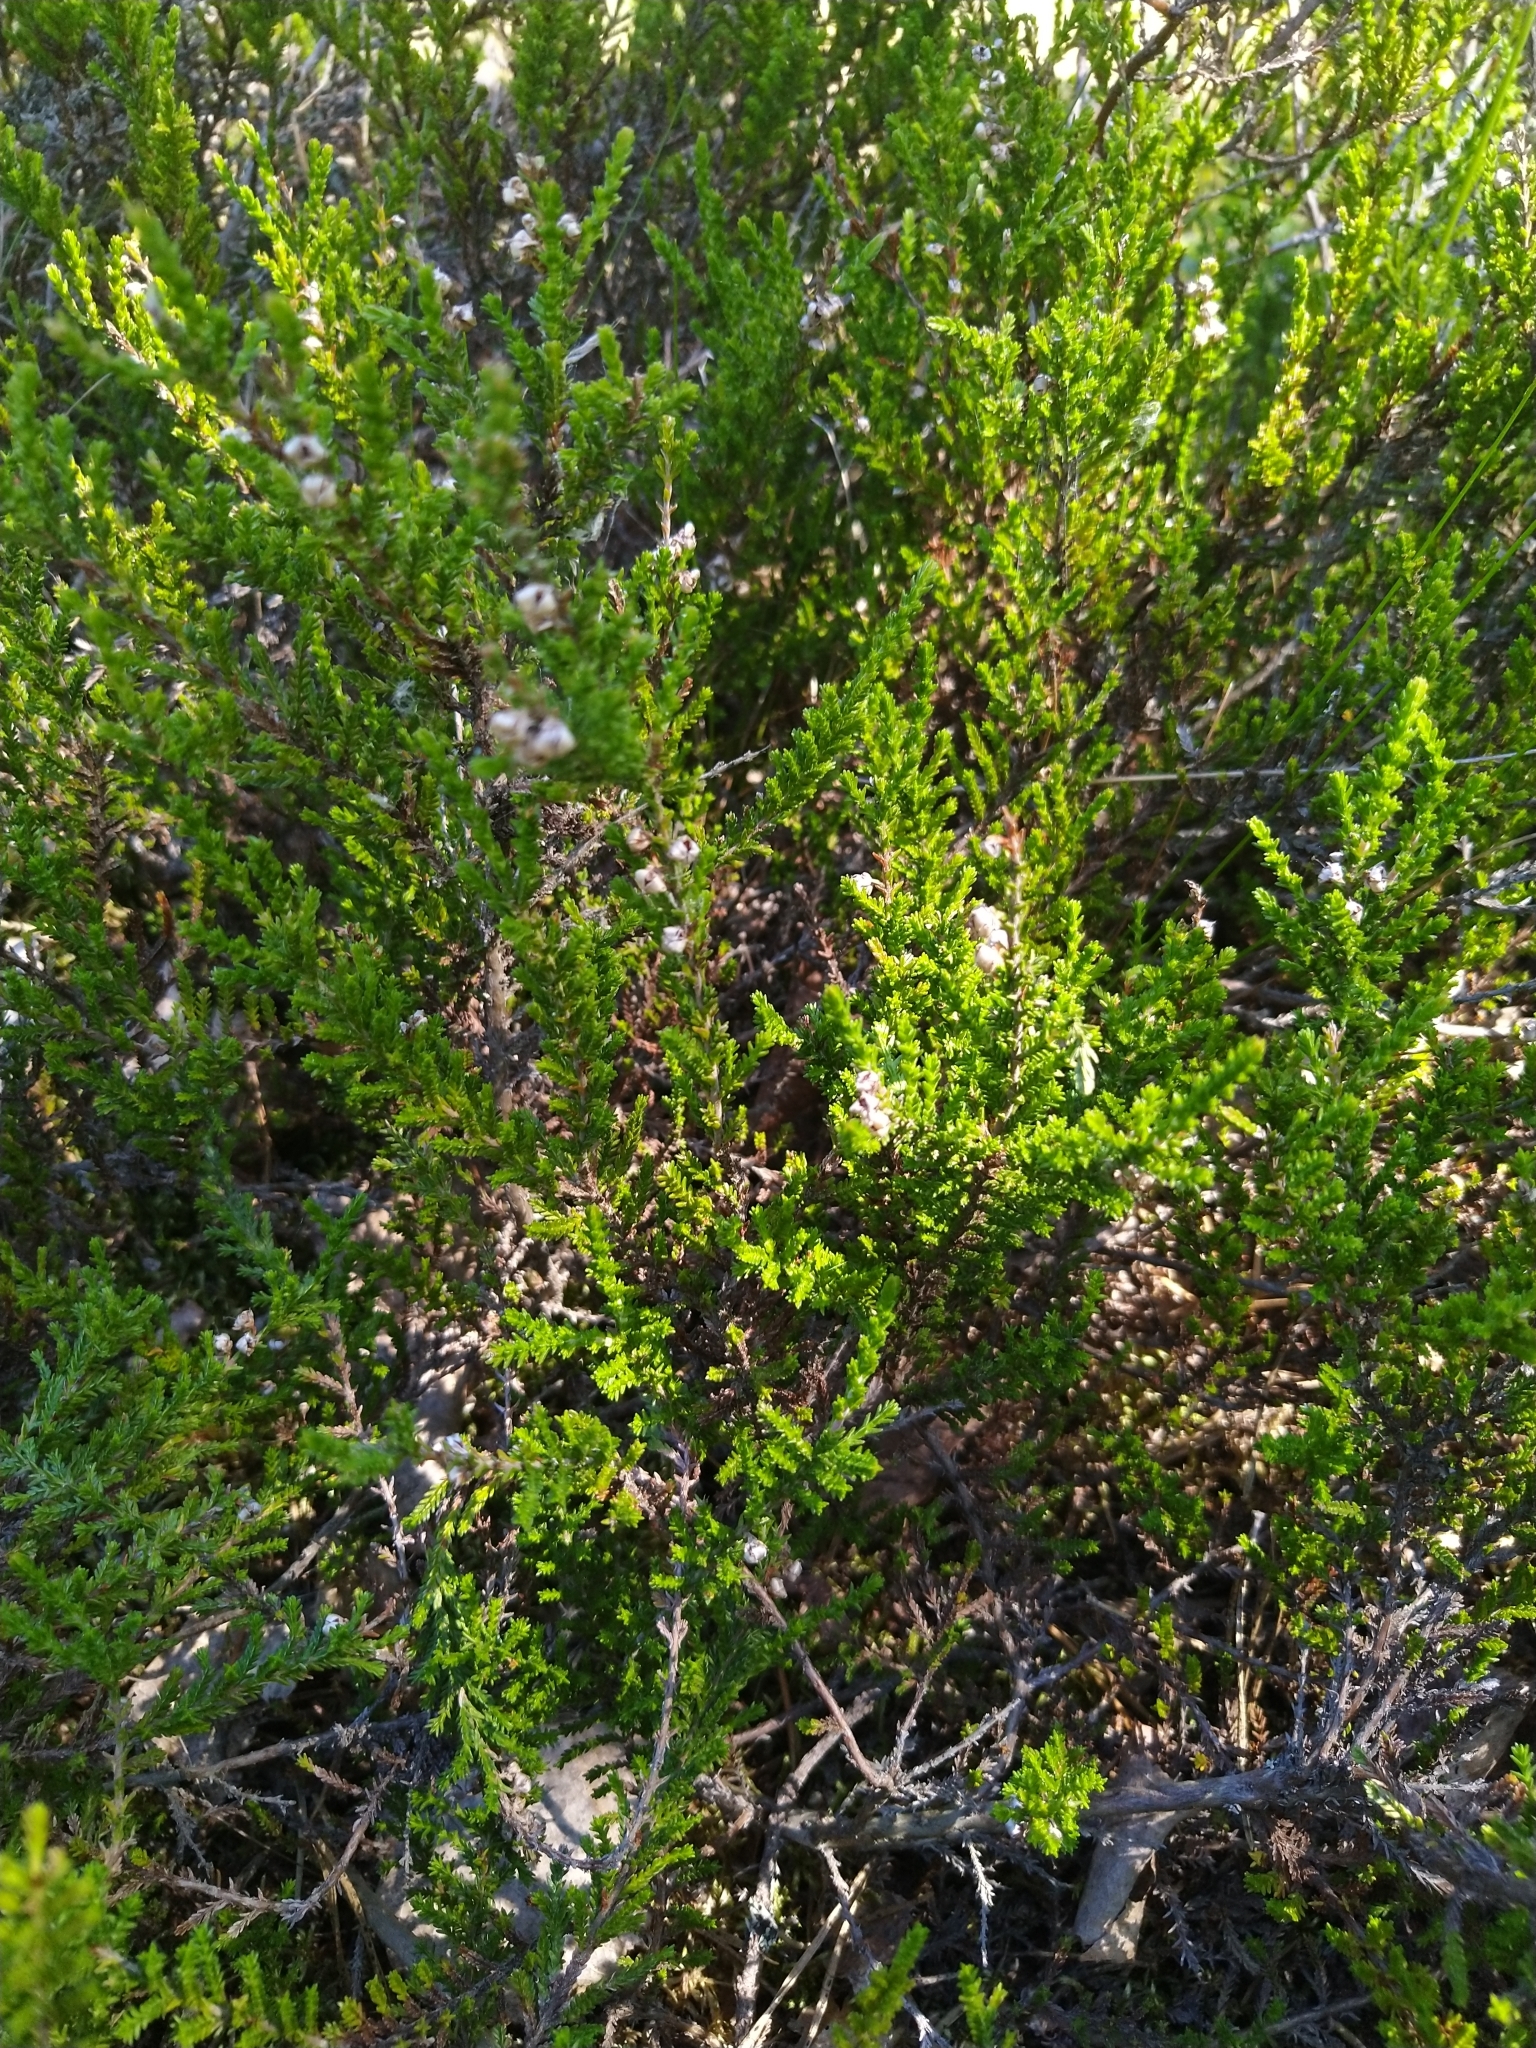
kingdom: Plantae
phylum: Tracheophyta
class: Magnoliopsida
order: Ericales
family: Ericaceae
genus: Calluna
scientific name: Calluna vulgaris
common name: Heather
